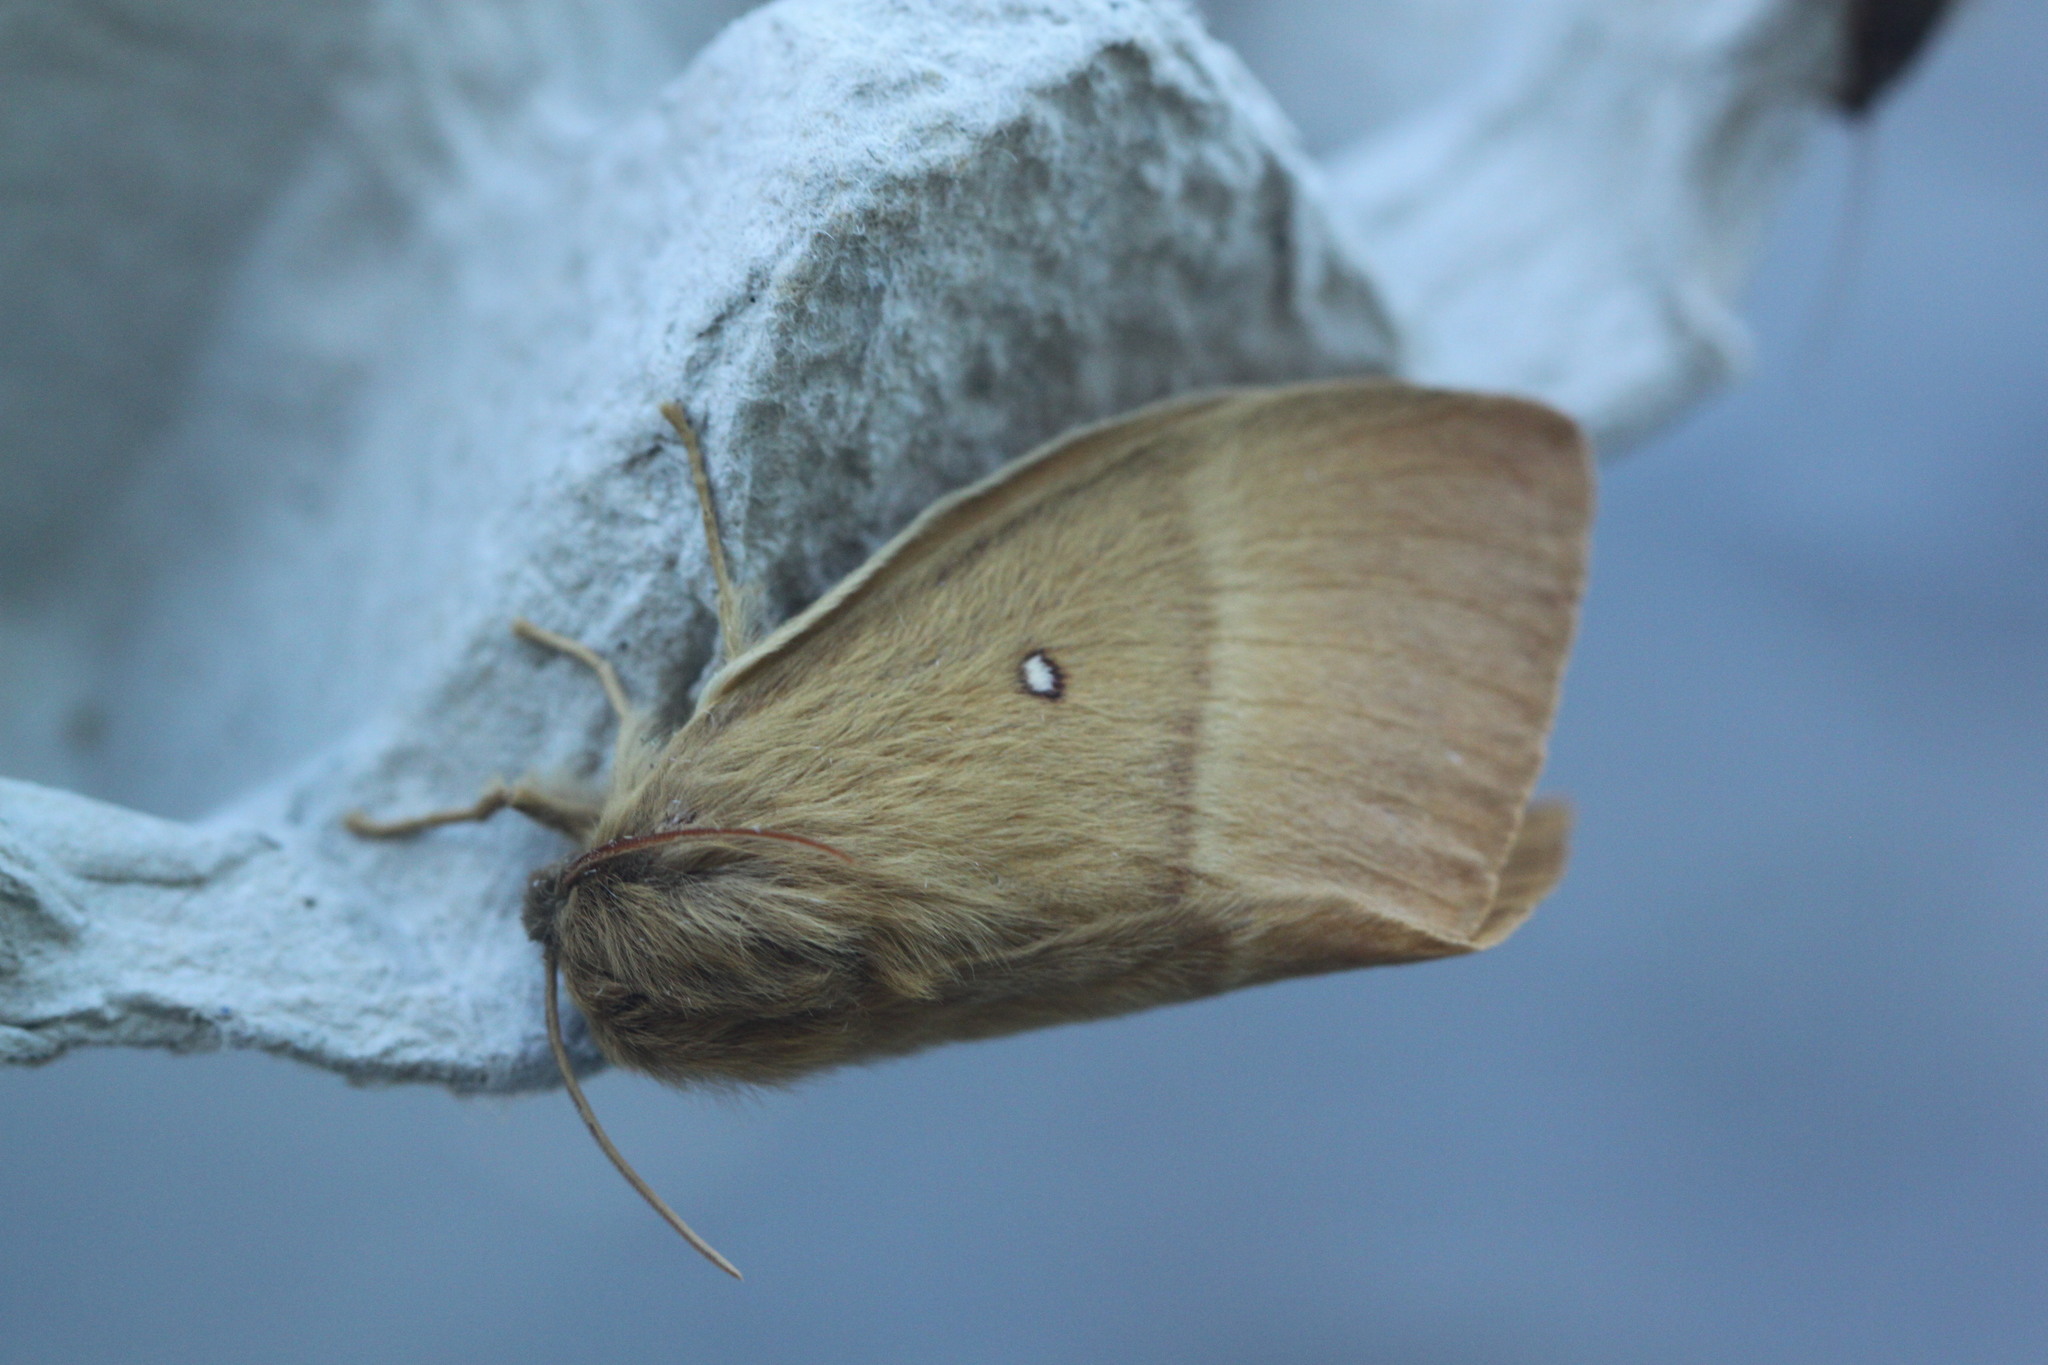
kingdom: Animalia
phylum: Arthropoda
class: Insecta
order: Lepidoptera
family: Lasiocampidae
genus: Lasiocampa
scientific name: Lasiocampa quercus
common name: Oak eggar
